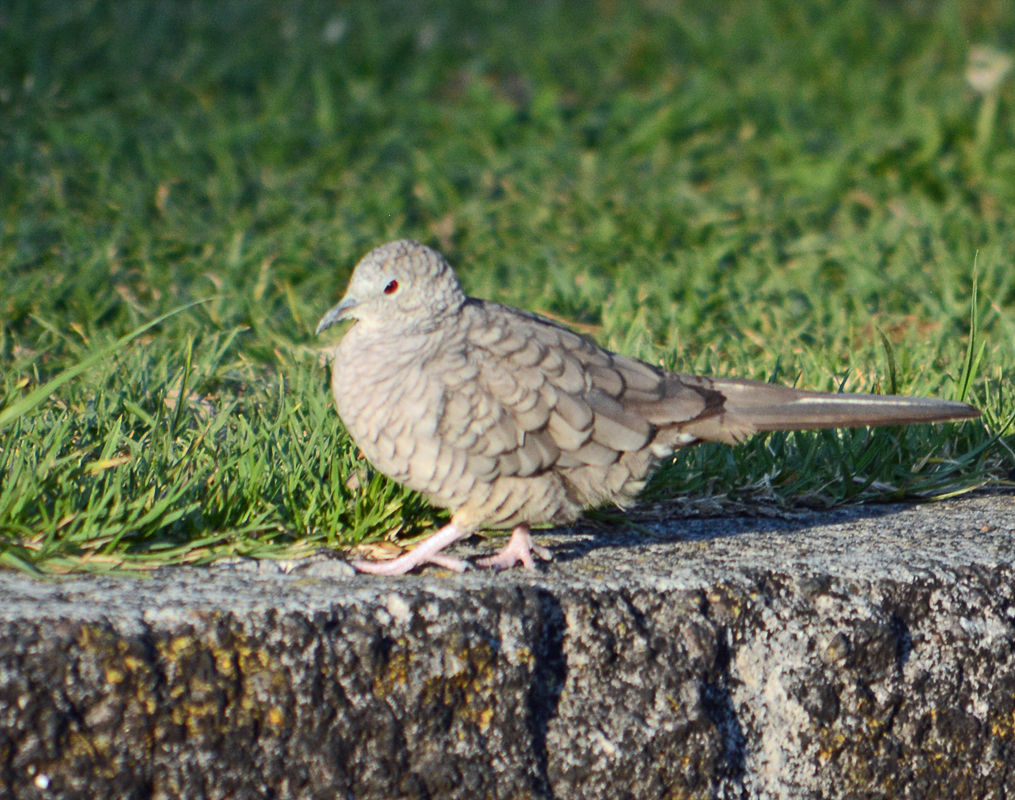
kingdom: Animalia
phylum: Chordata
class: Aves
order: Columbiformes
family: Columbidae
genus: Columbina
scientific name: Columbina inca
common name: Inca dove
